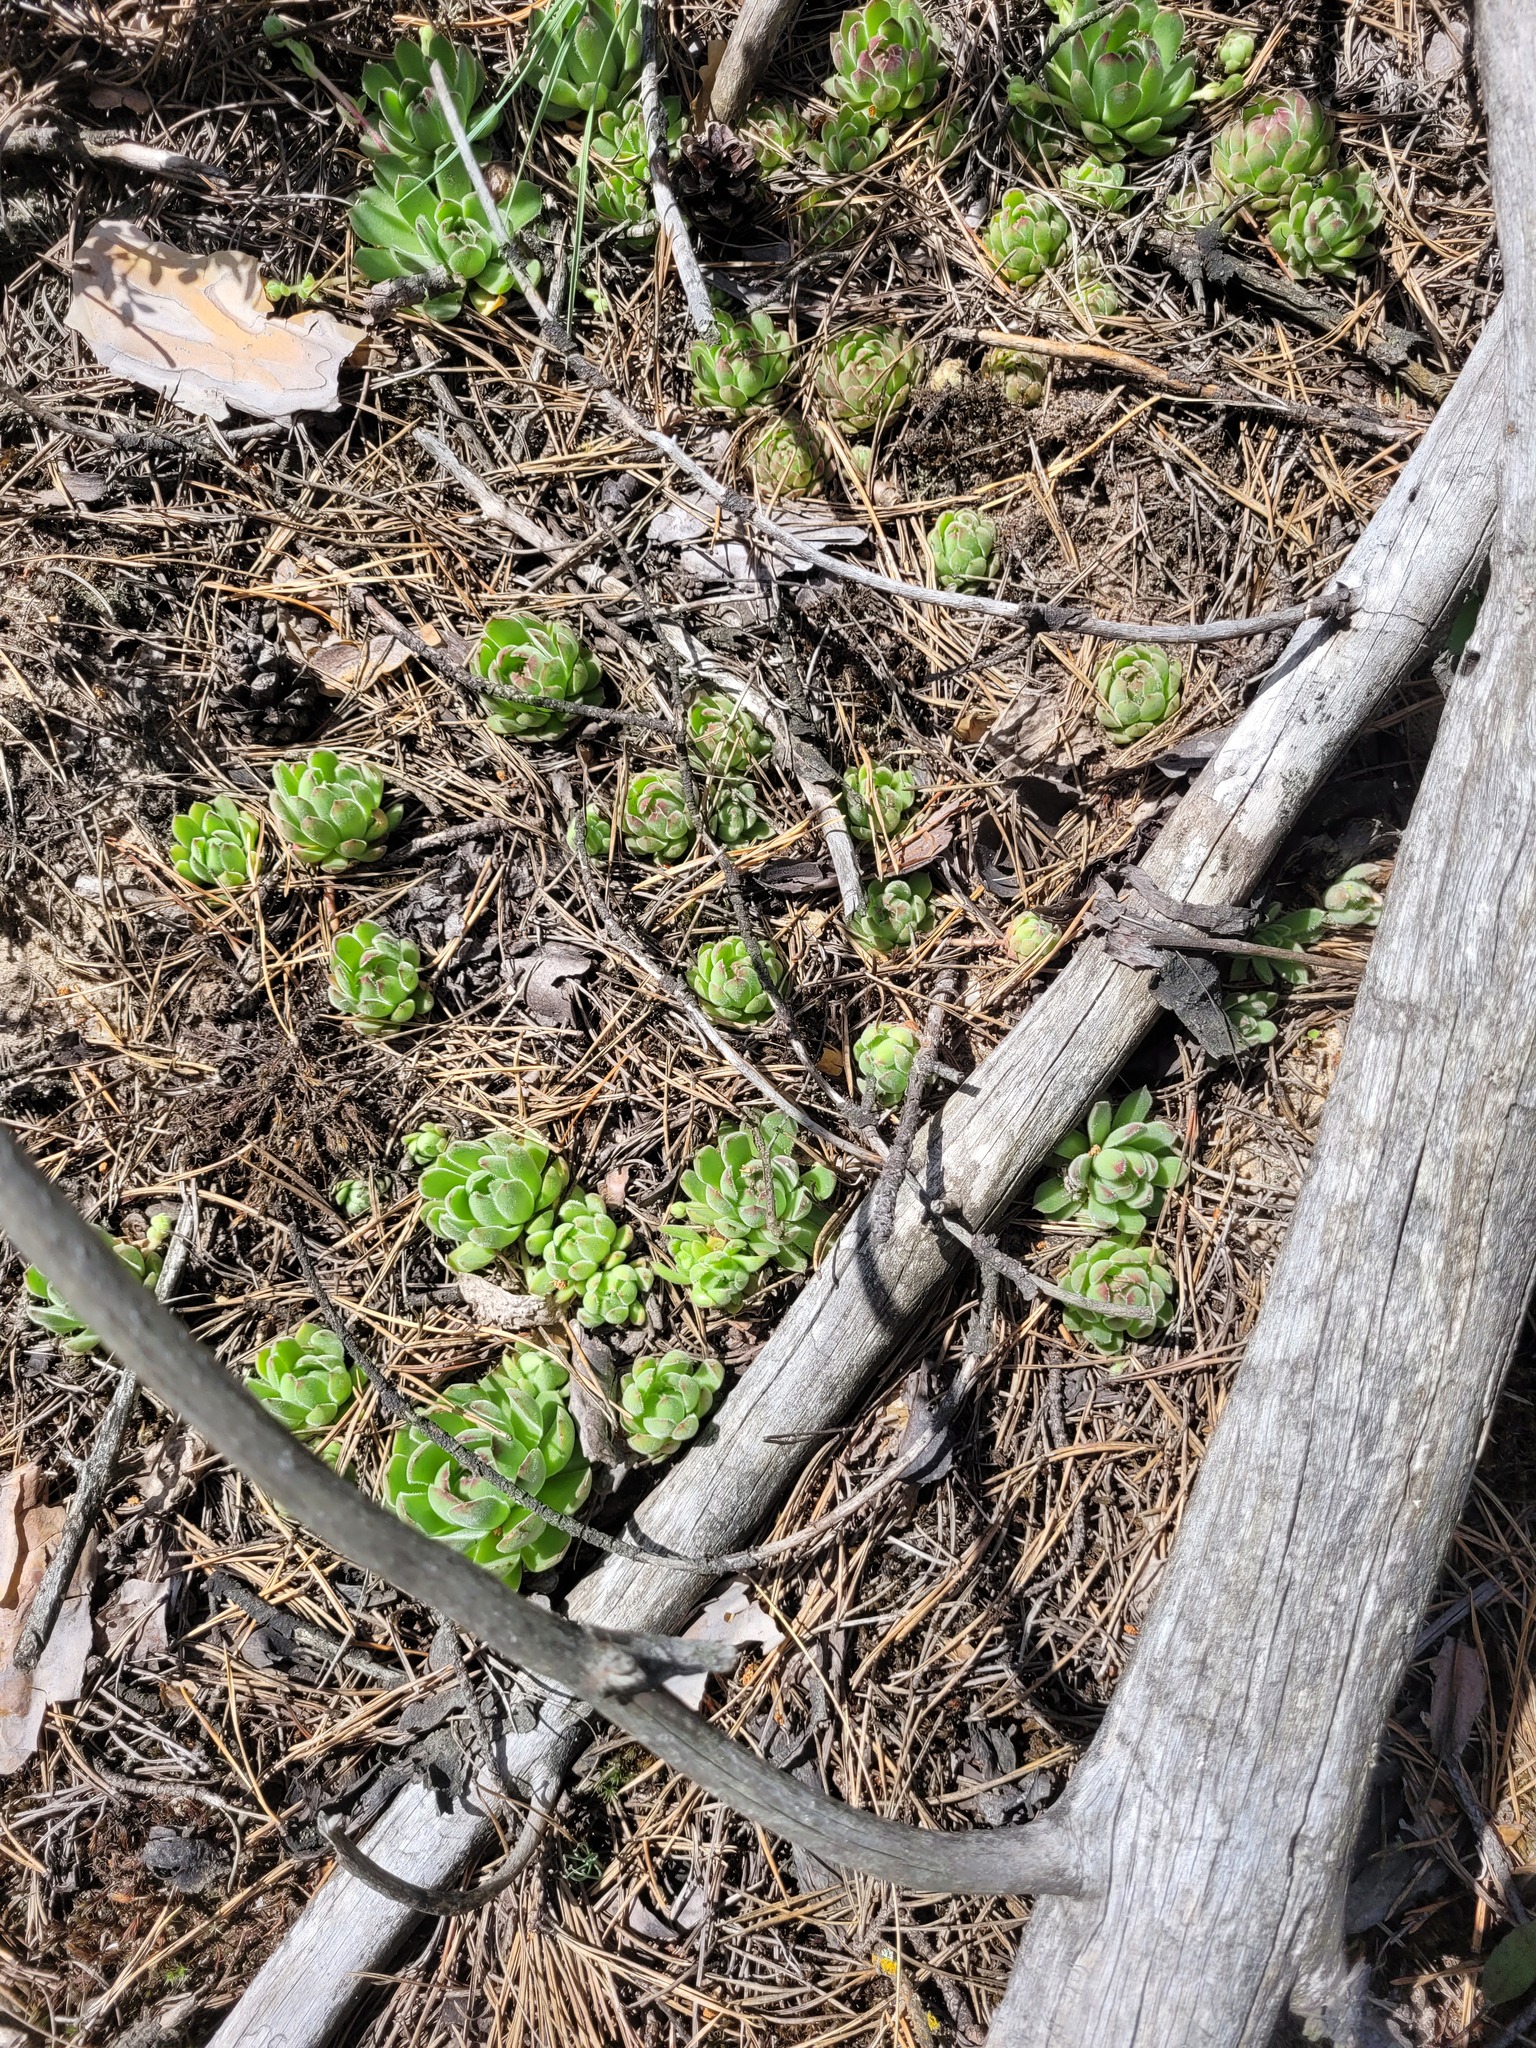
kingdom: Plantae
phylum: Tracheophyta
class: Magnoliopsida
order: Saxifragales
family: Crassulaceae
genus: Sempervivum
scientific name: Sempervivum ruthenicum
